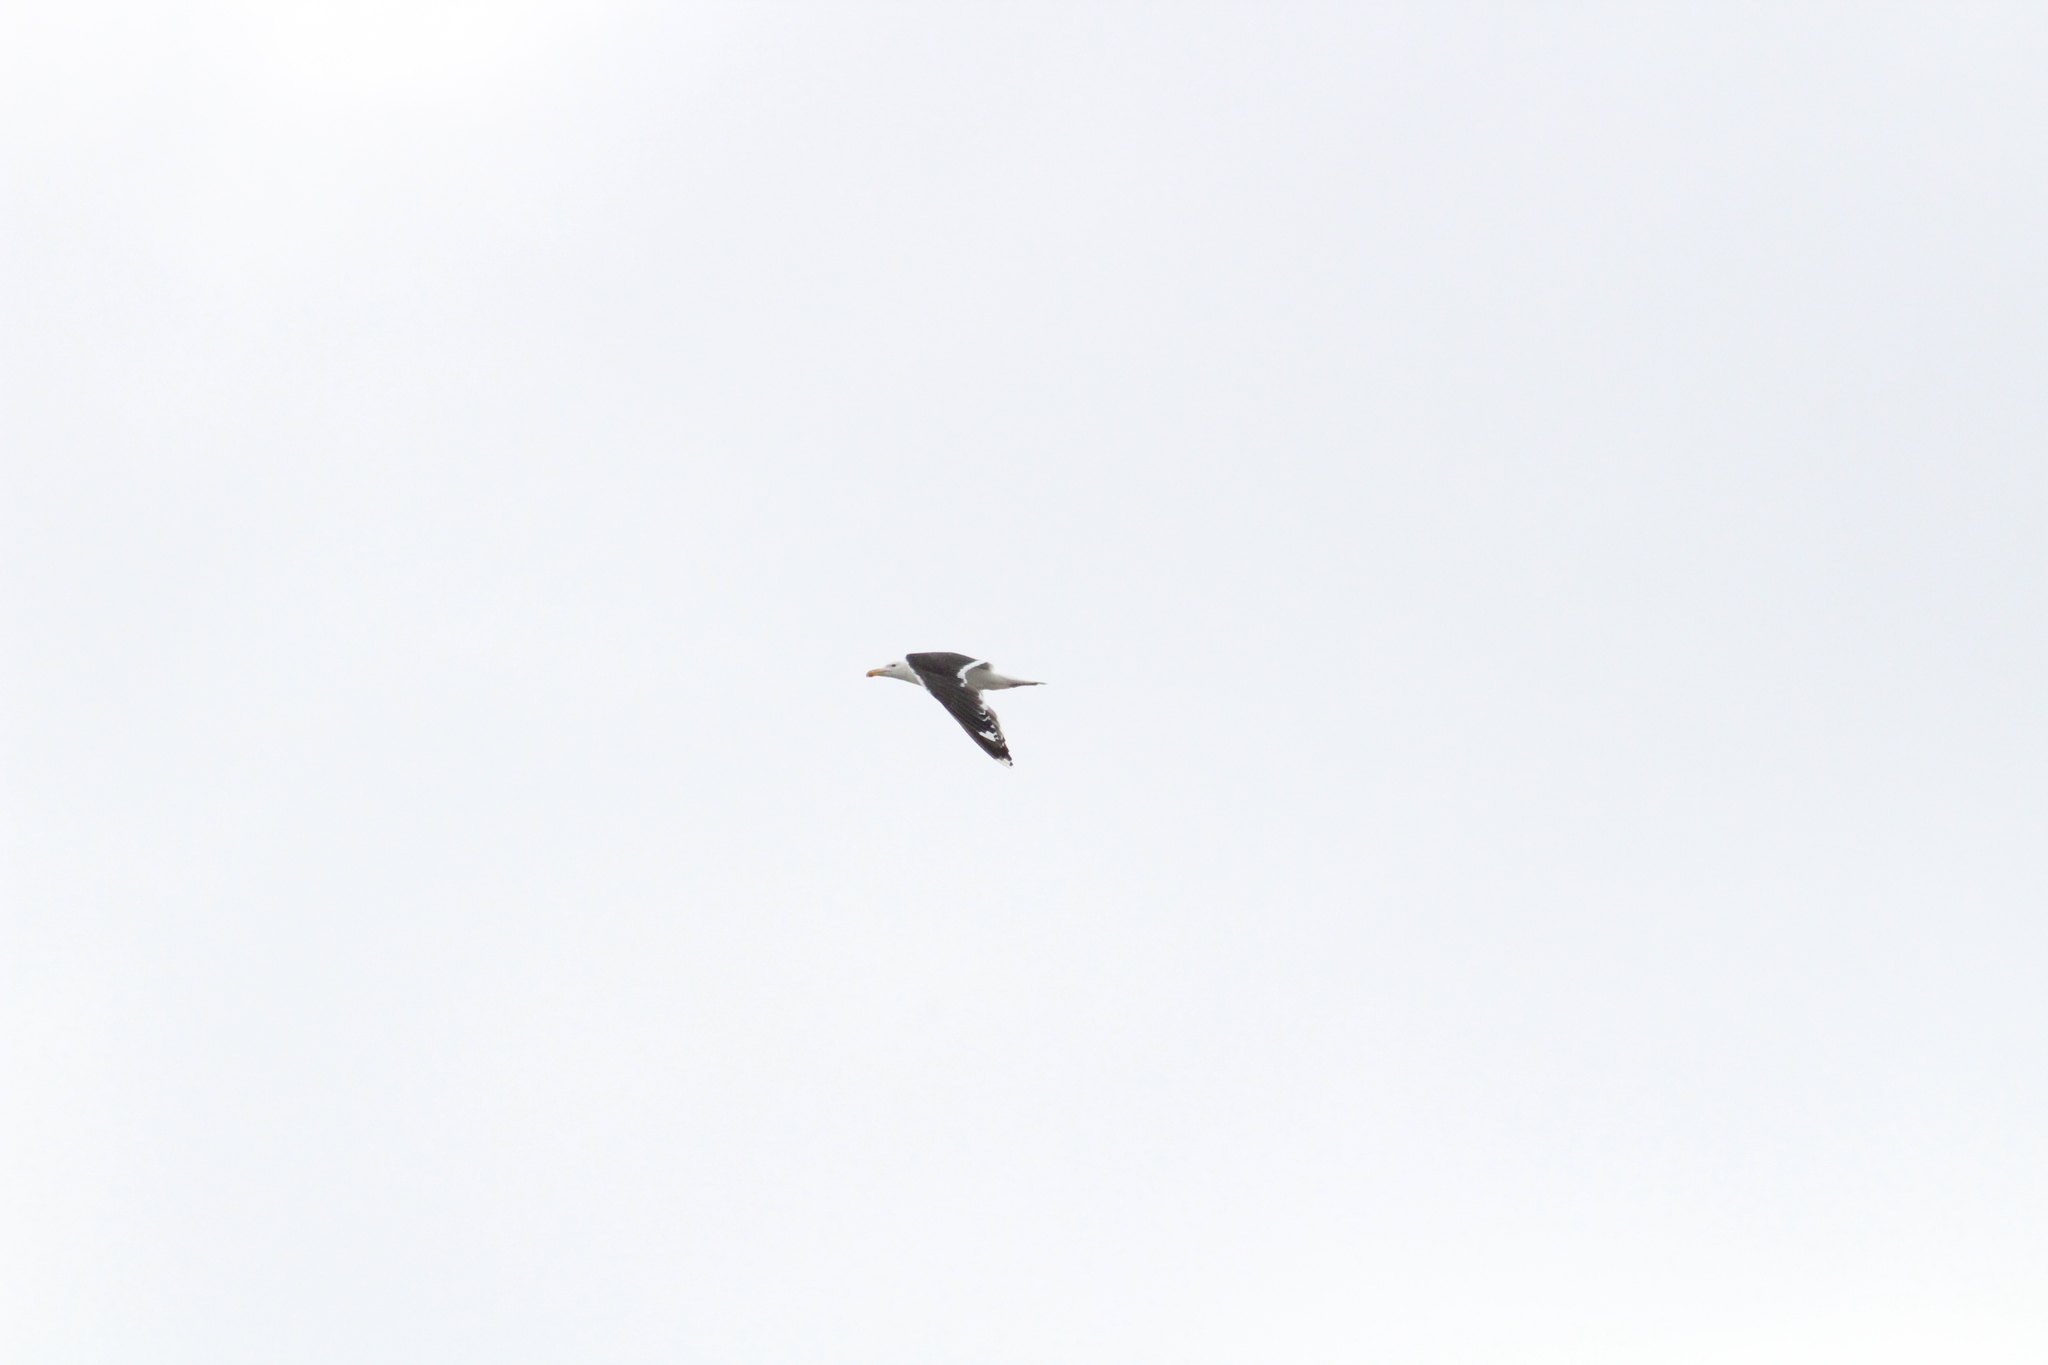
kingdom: Animalia
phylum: Chordata
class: Aves
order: Charadriiformes
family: Laridae
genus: Larus
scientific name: Larus marinus
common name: Great black-backed gull
